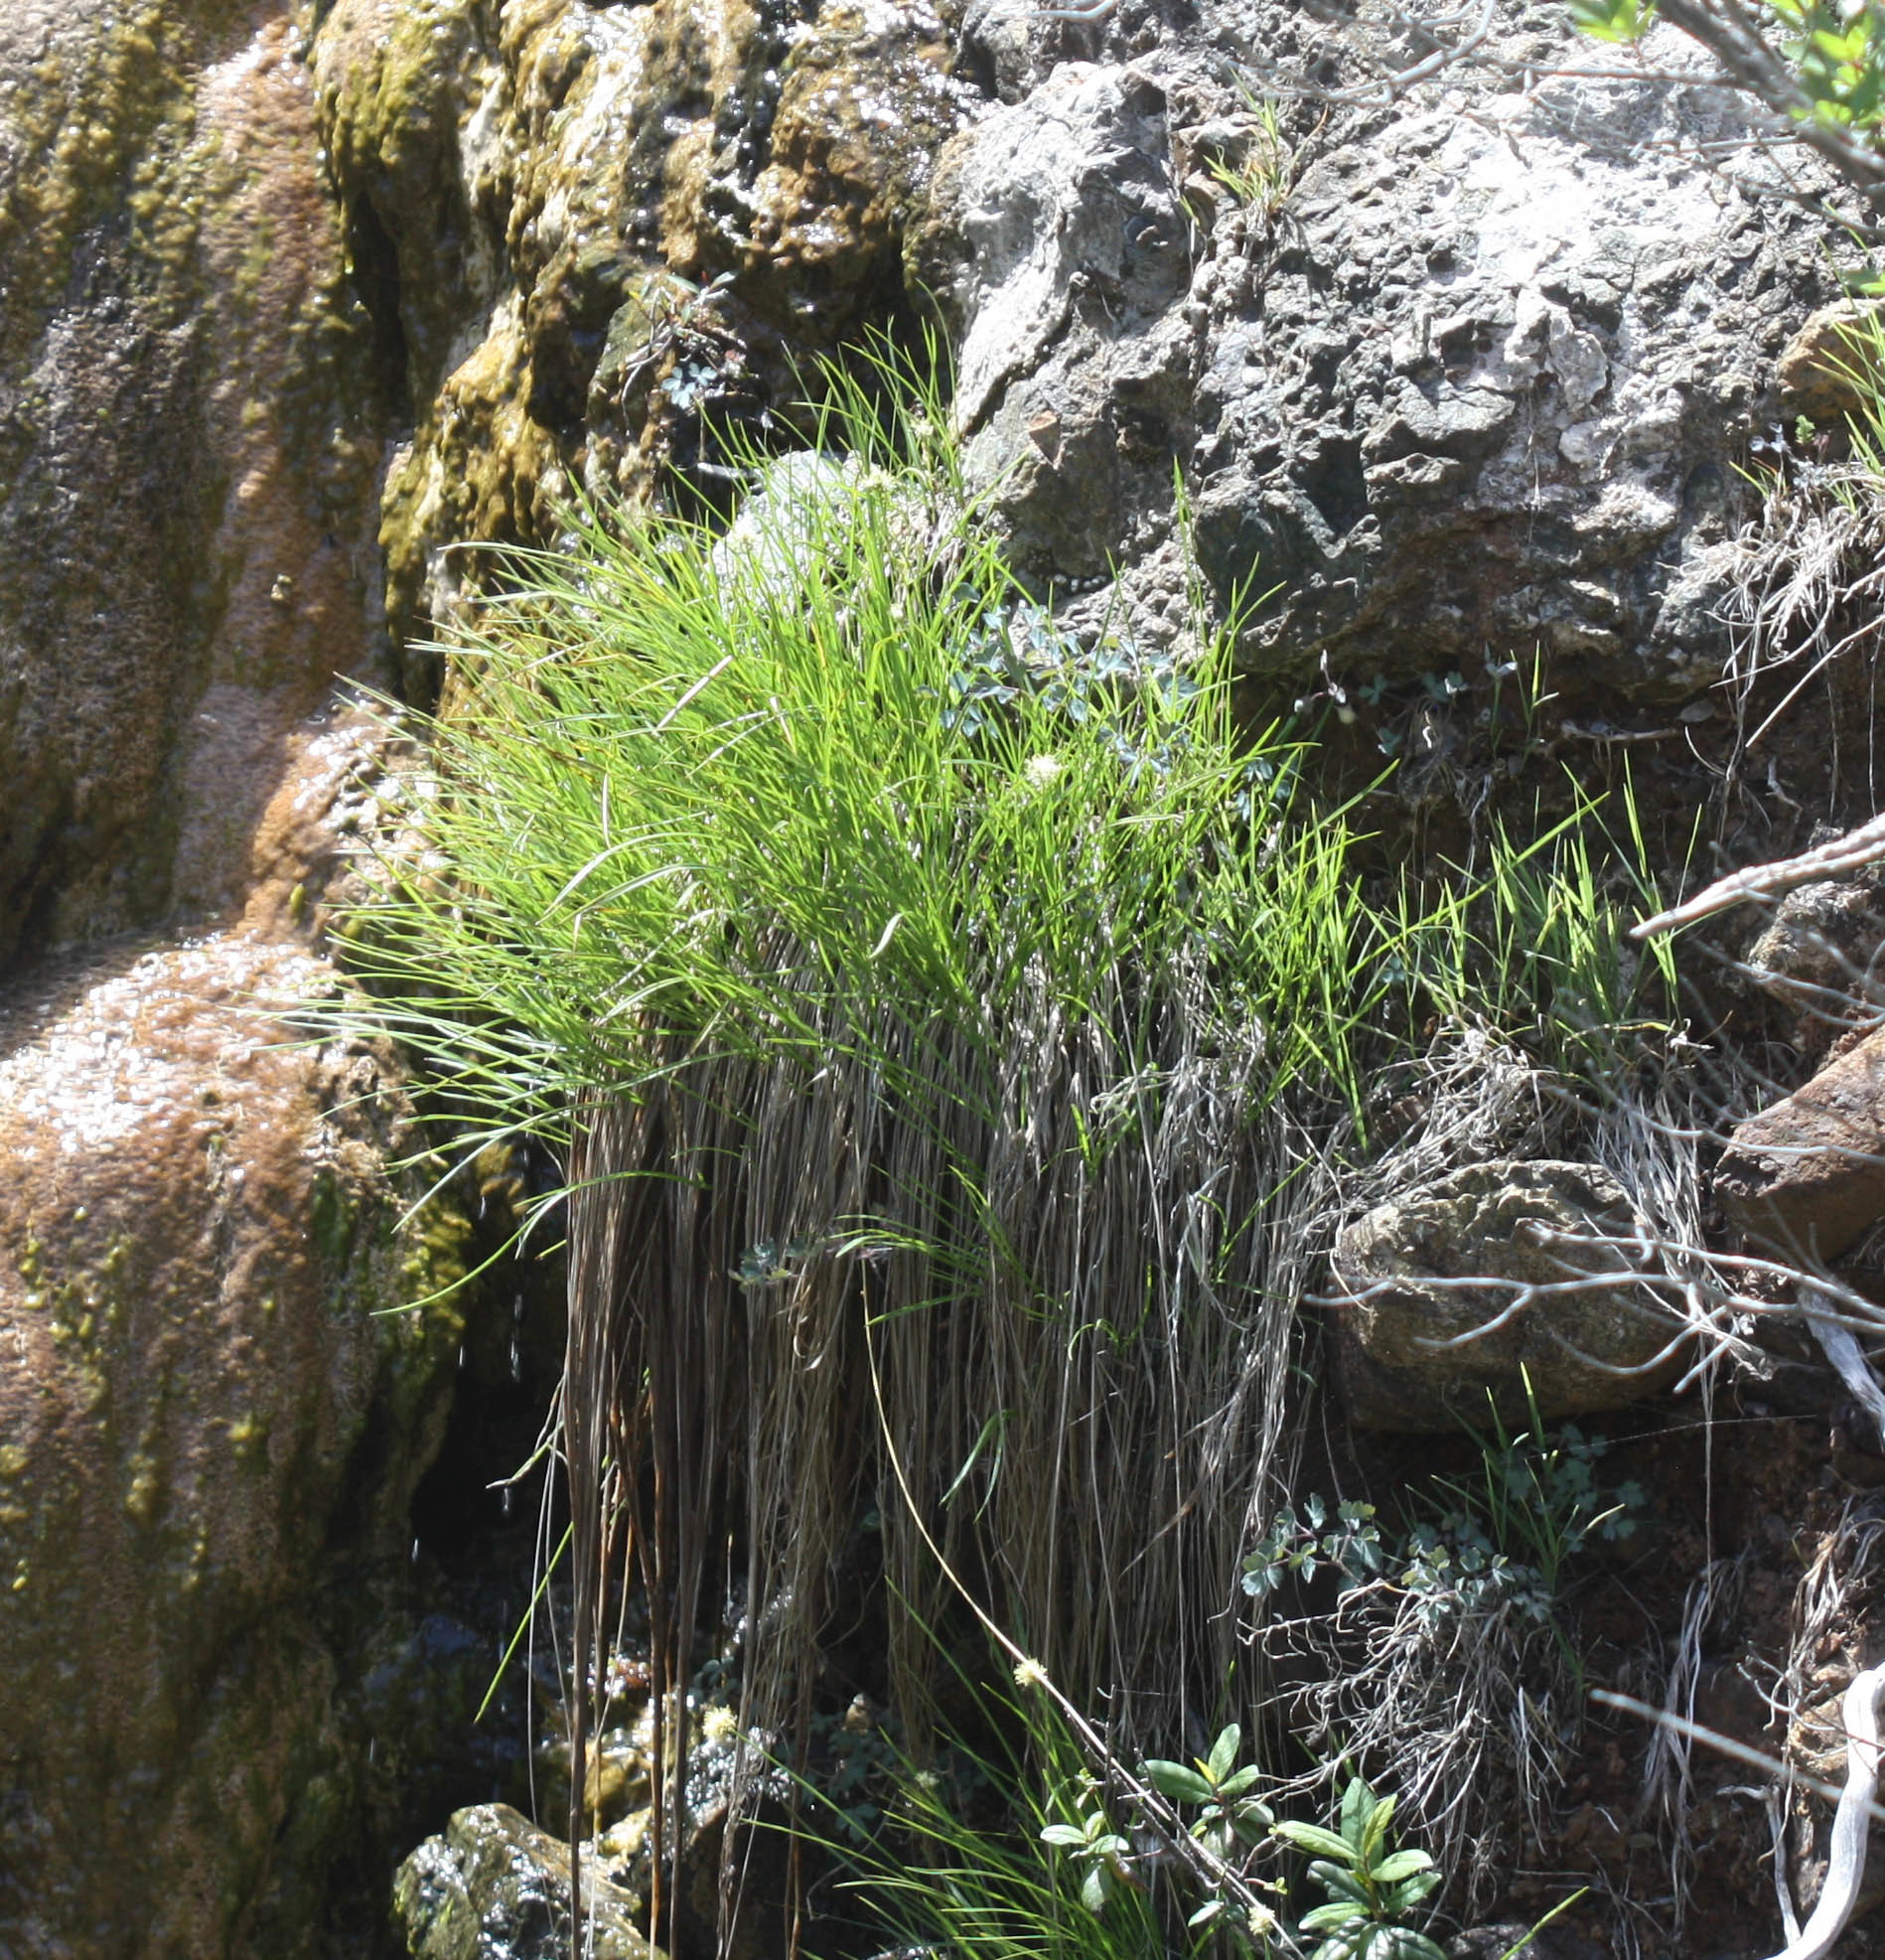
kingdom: Plantae
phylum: Tracheophyta
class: Liliopsida
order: Poales
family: Cyperaceae
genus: Calliscirpus
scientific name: Calliscirpus criniger
